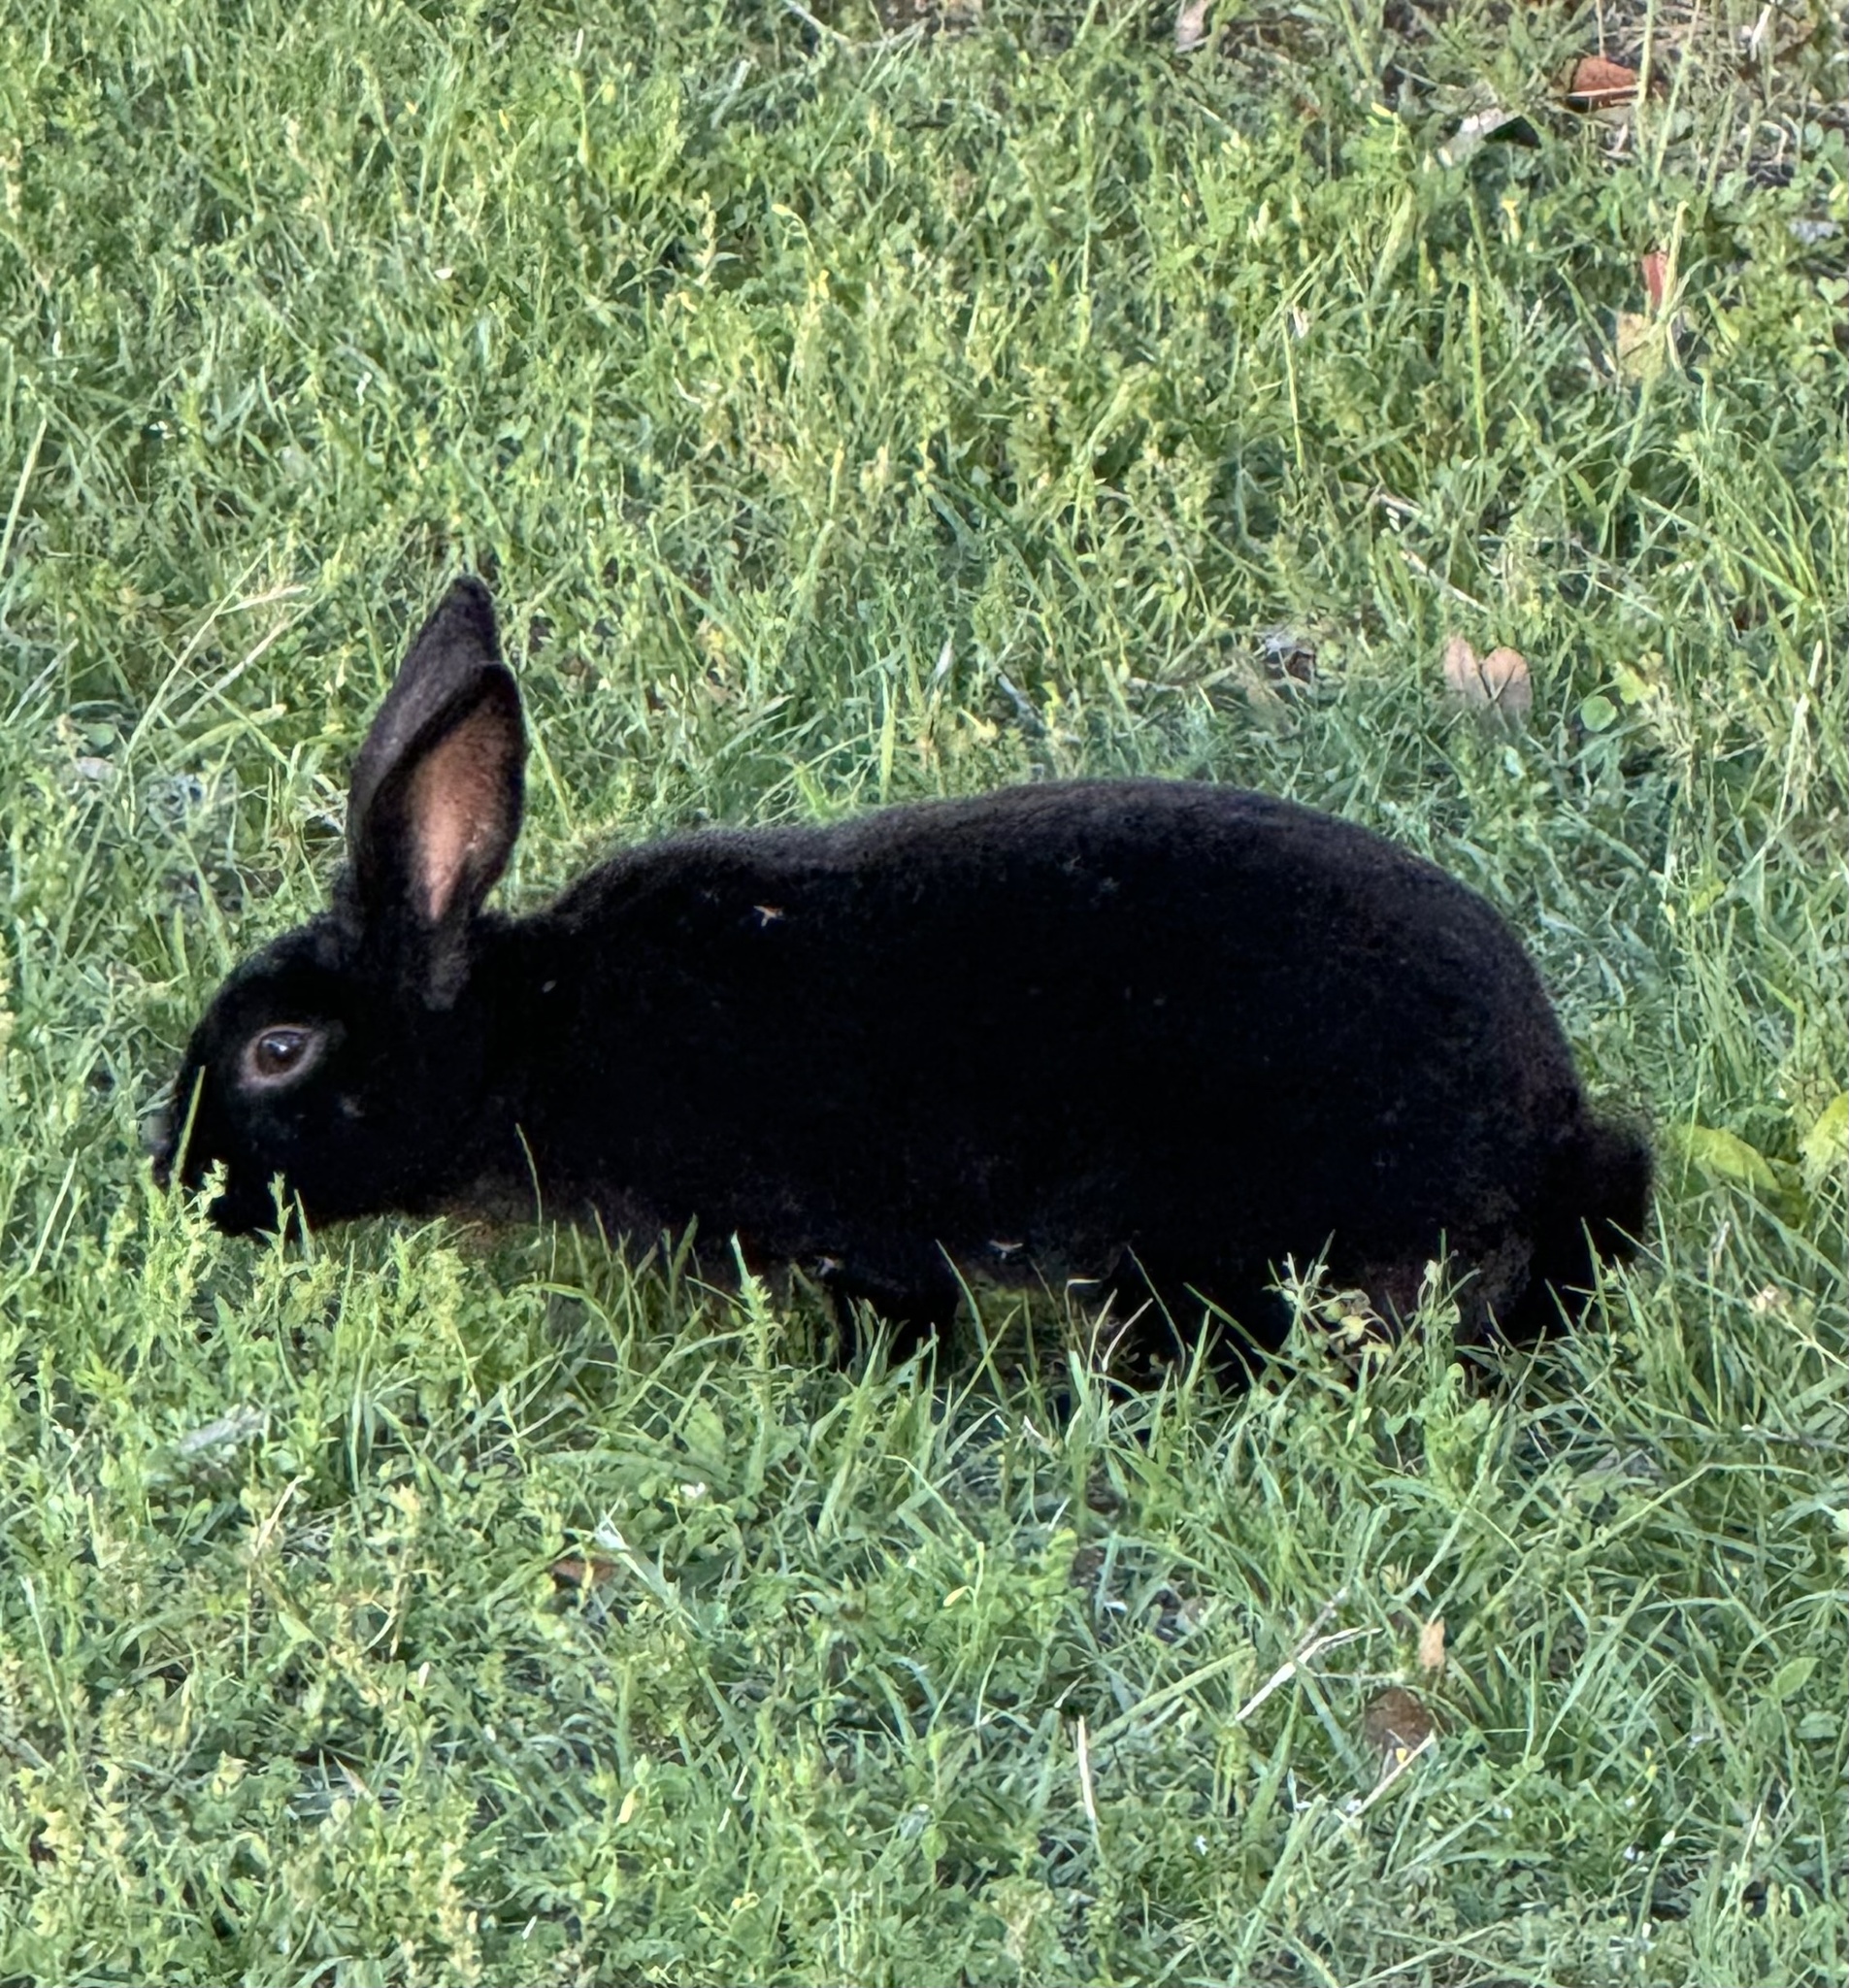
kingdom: Animalia
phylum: Chordata
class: Mammalia
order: Lagomorpha
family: Leporidae
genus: Oryctolagus
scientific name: Oryctolagus cuniculus
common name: European rabbit
